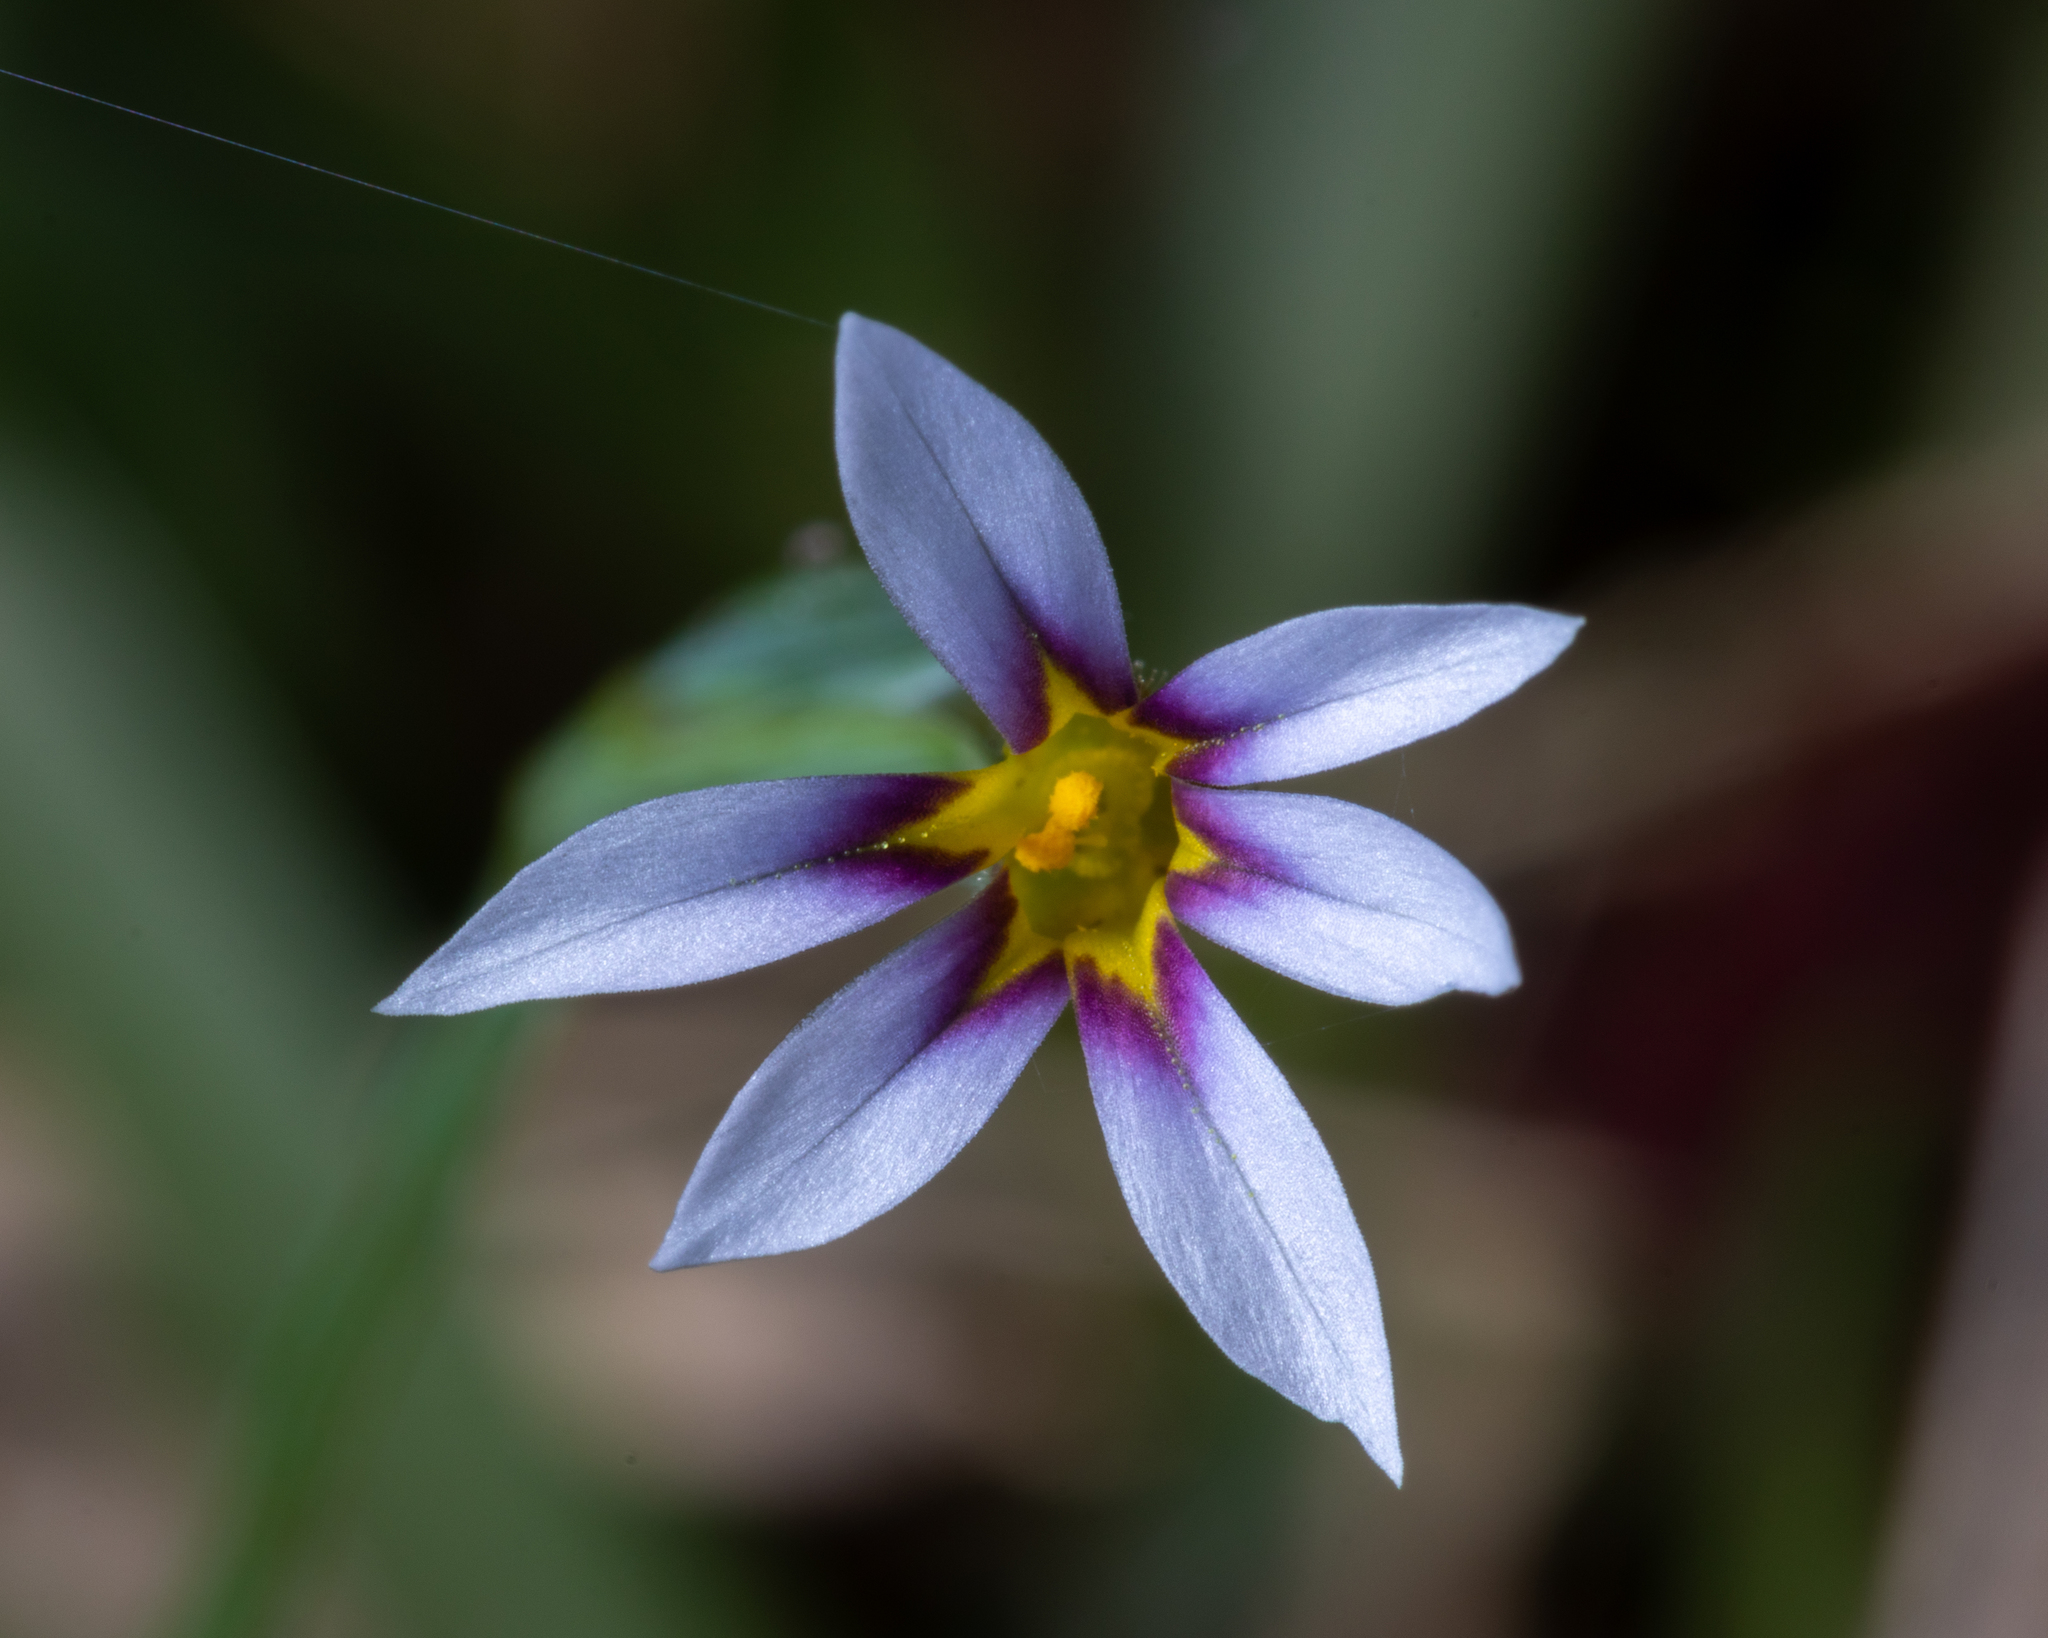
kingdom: Plantae
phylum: Tracheophyta
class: Liliopsida
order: Asparagales
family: Iridaceae
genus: Sisyrinchium
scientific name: Sisyrinchium micranthum
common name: Bermuda pigroot
